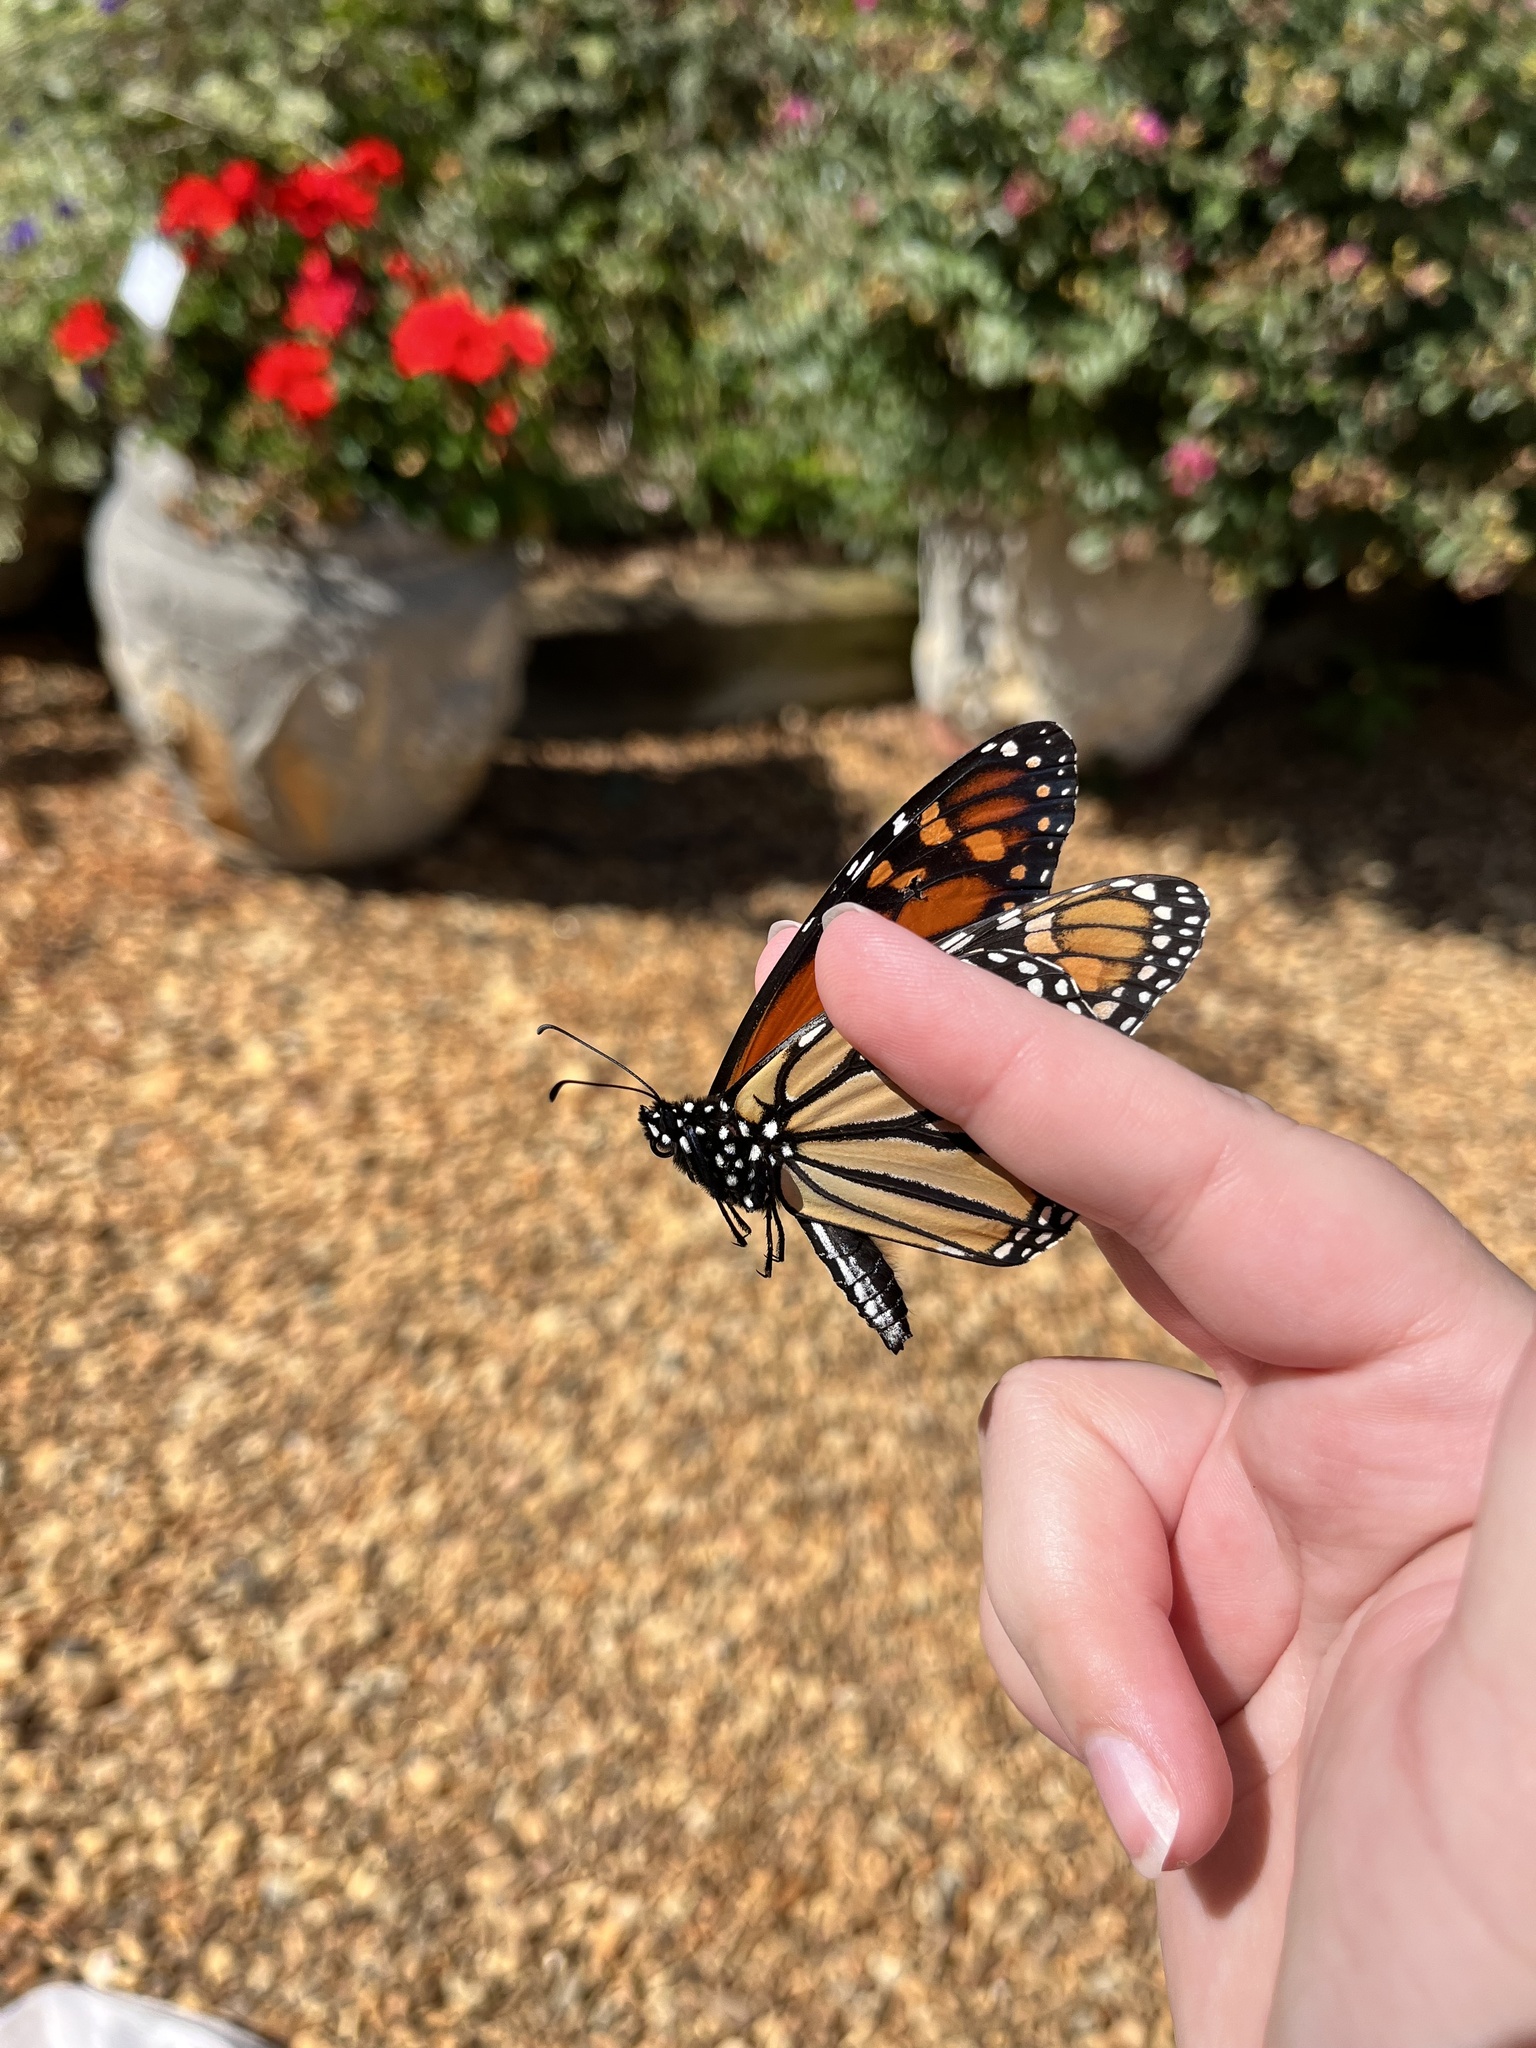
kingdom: Animalia
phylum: Arthropoda
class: Insecta
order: Lepidoptera
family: Nymphalidae
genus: Danaus
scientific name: Danaus plexippus
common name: Monarch
